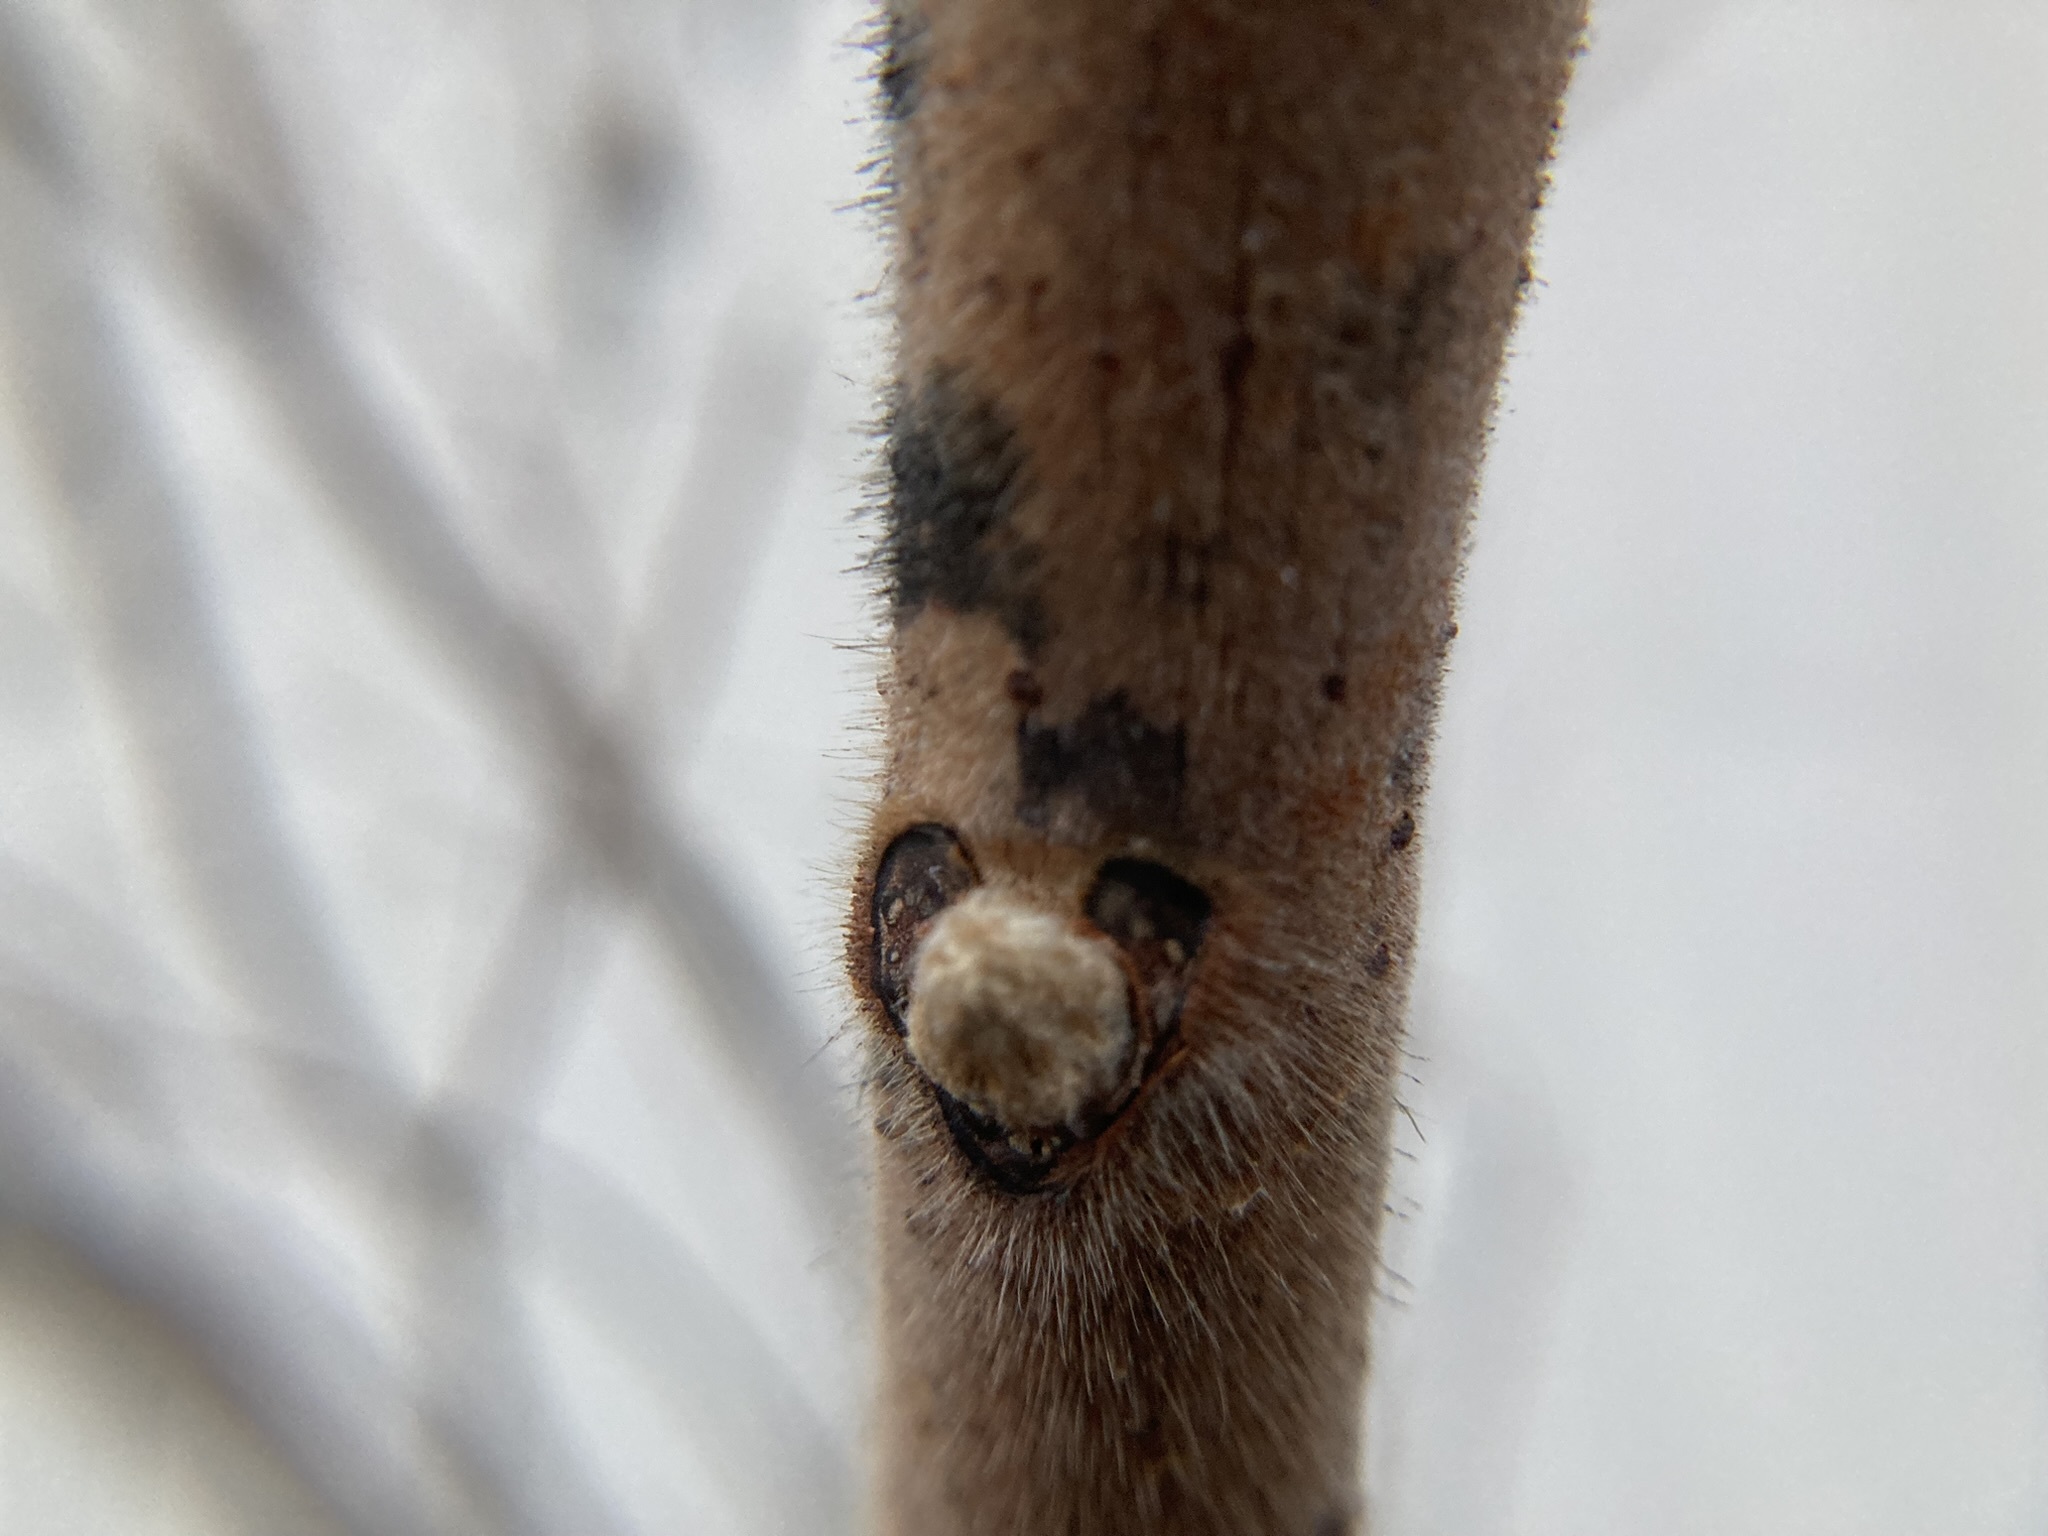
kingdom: Plantae
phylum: Tracheophyta
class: Magnoliopsida
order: Sapindales
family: Anacardiaceae
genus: Rhus
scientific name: Rhus typhina
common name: Staghorn sumac
